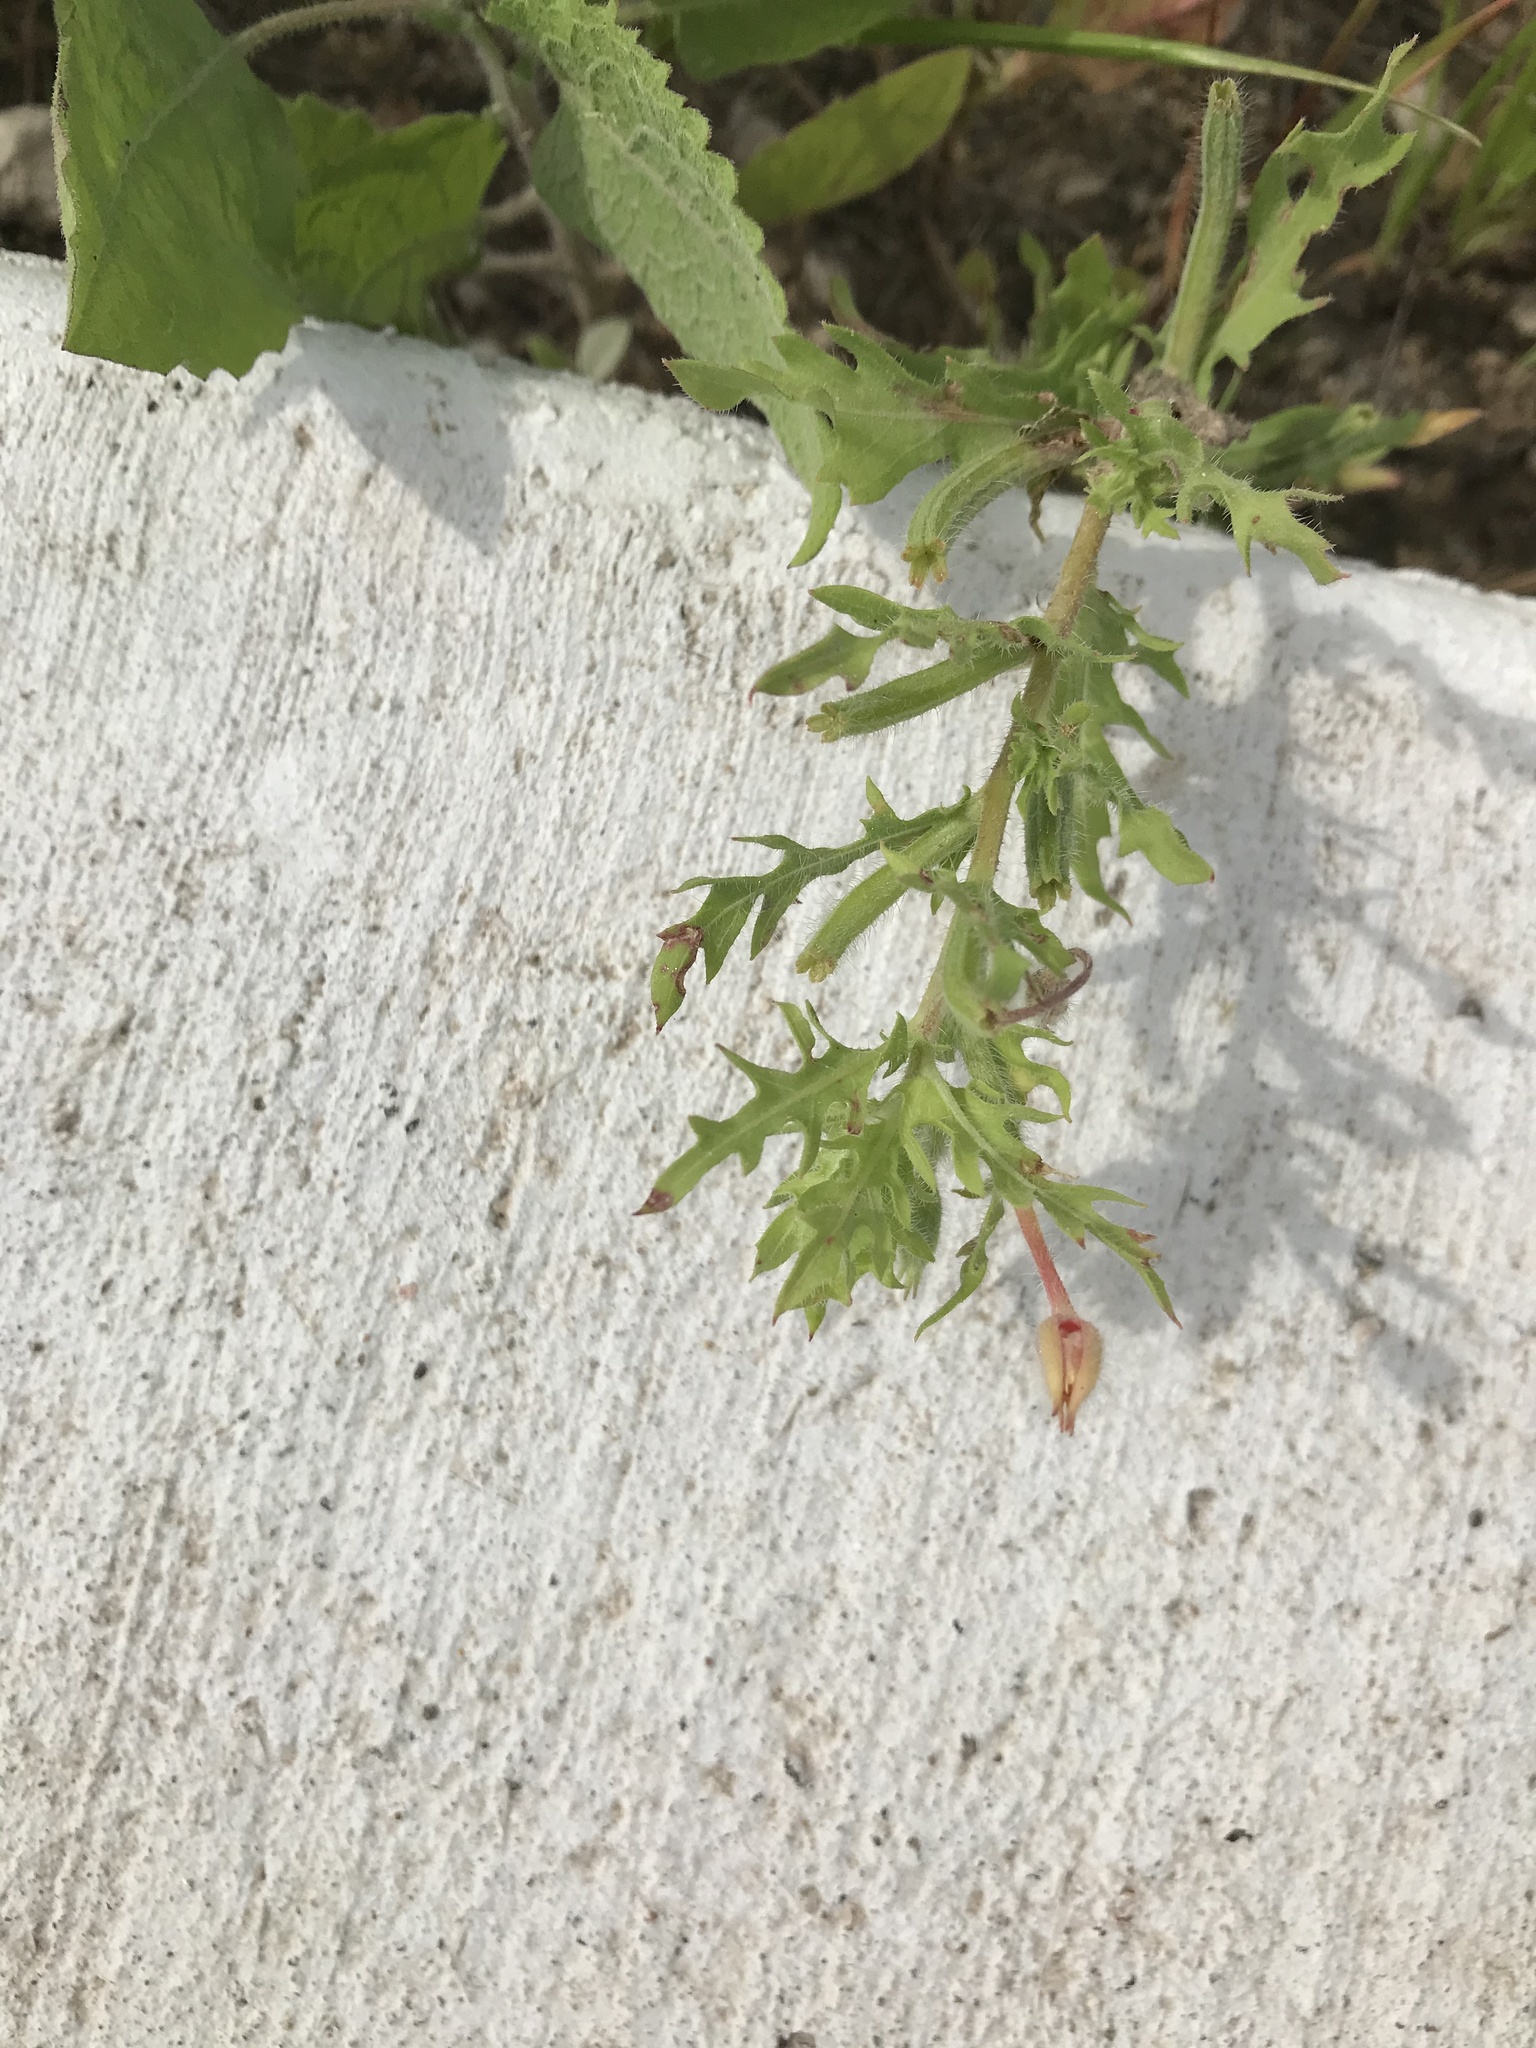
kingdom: Plantae
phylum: Tracheophyta
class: Magnoliopsida
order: Myrtales
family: Onagraceae
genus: Oenothera
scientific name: Oenothera laciniata
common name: Cut-leaved evening-primrose
